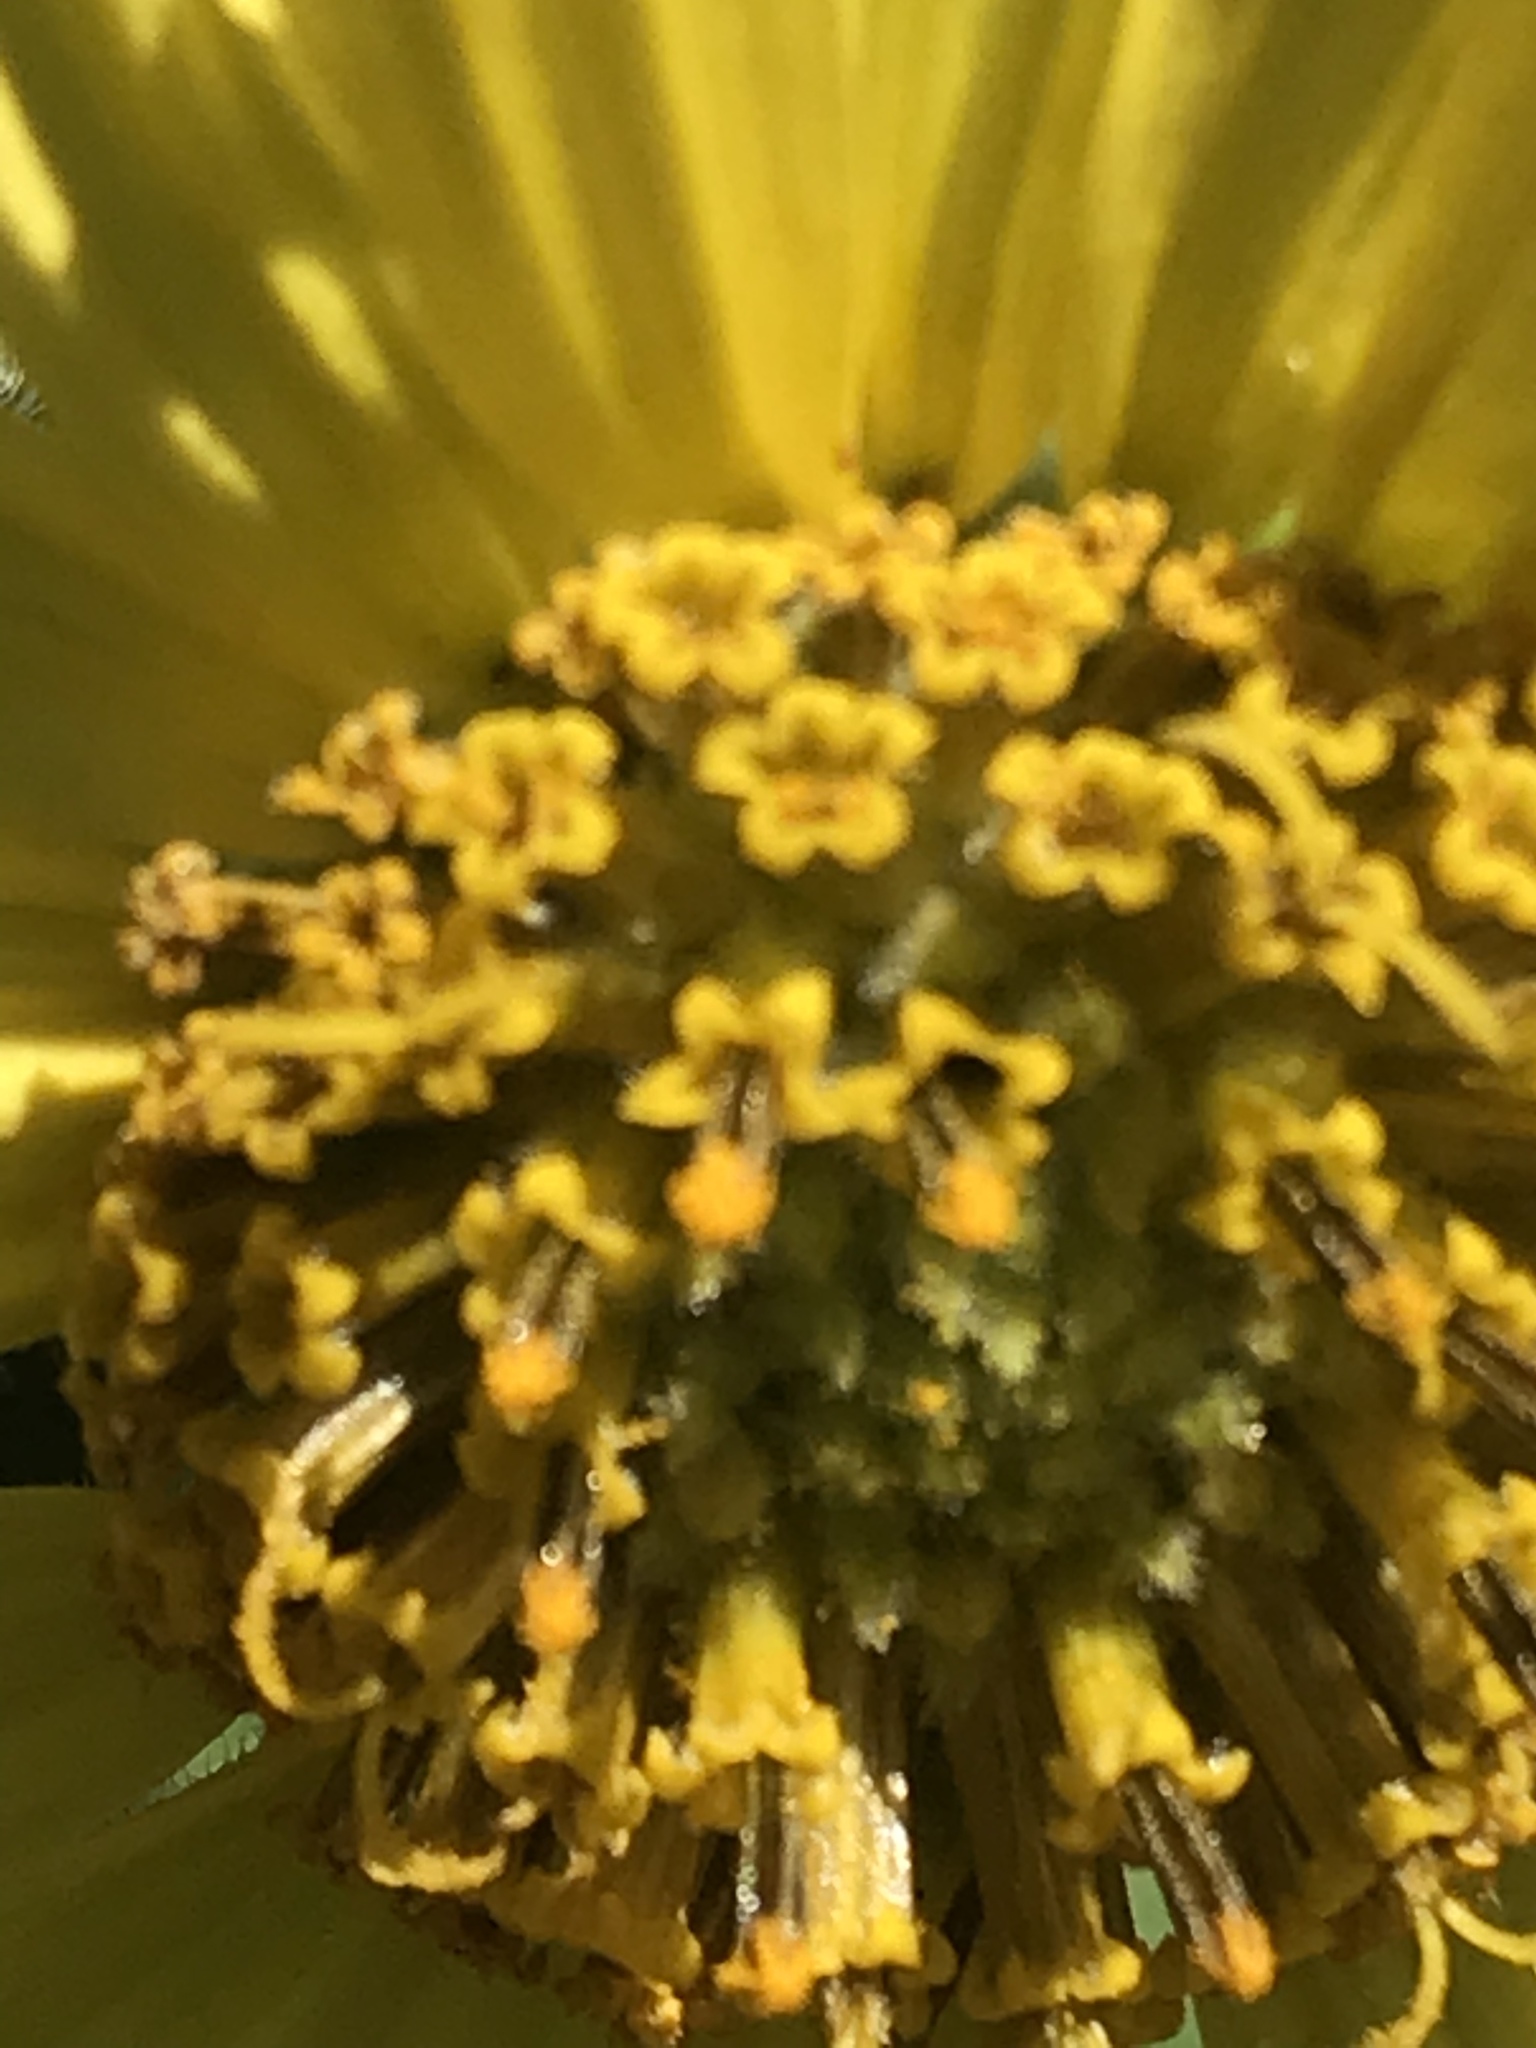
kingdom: Plantae
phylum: Tracheophyta
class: Magnoliopsida
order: Asterales
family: Asteraceae
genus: Vigethia
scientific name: Vigethia mexicana
